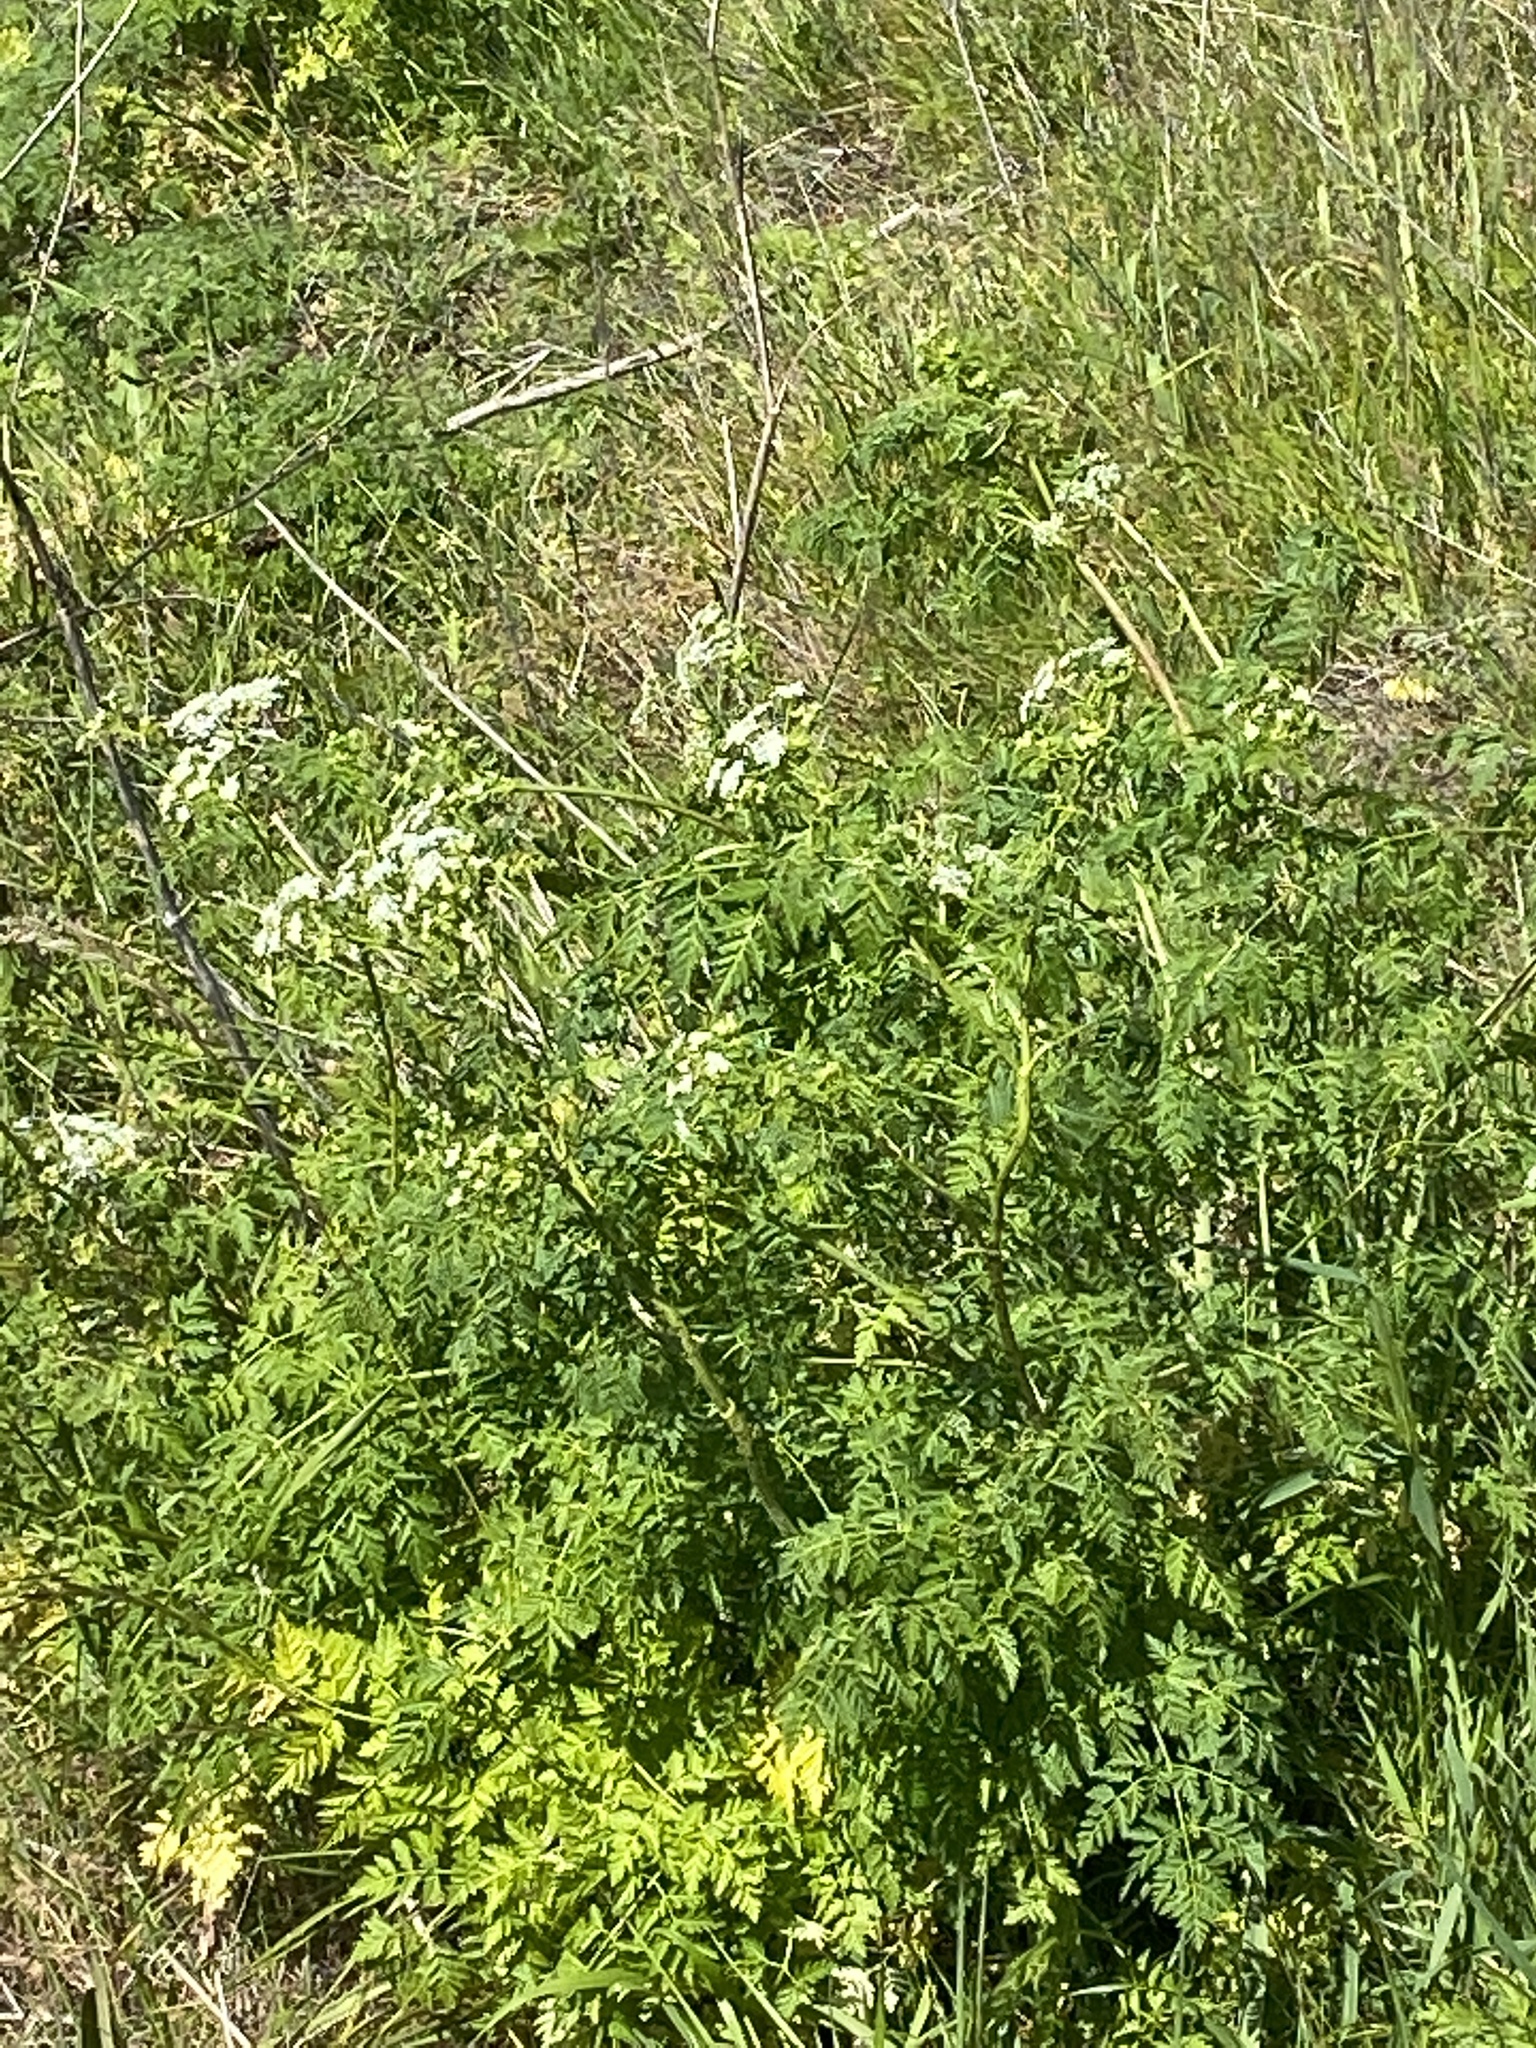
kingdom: Plantae
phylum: Tracheophyta
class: Magnoliopsida
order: Apiales
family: Apiaceae
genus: Conium
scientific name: Conium maculatum
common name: Hemlock
